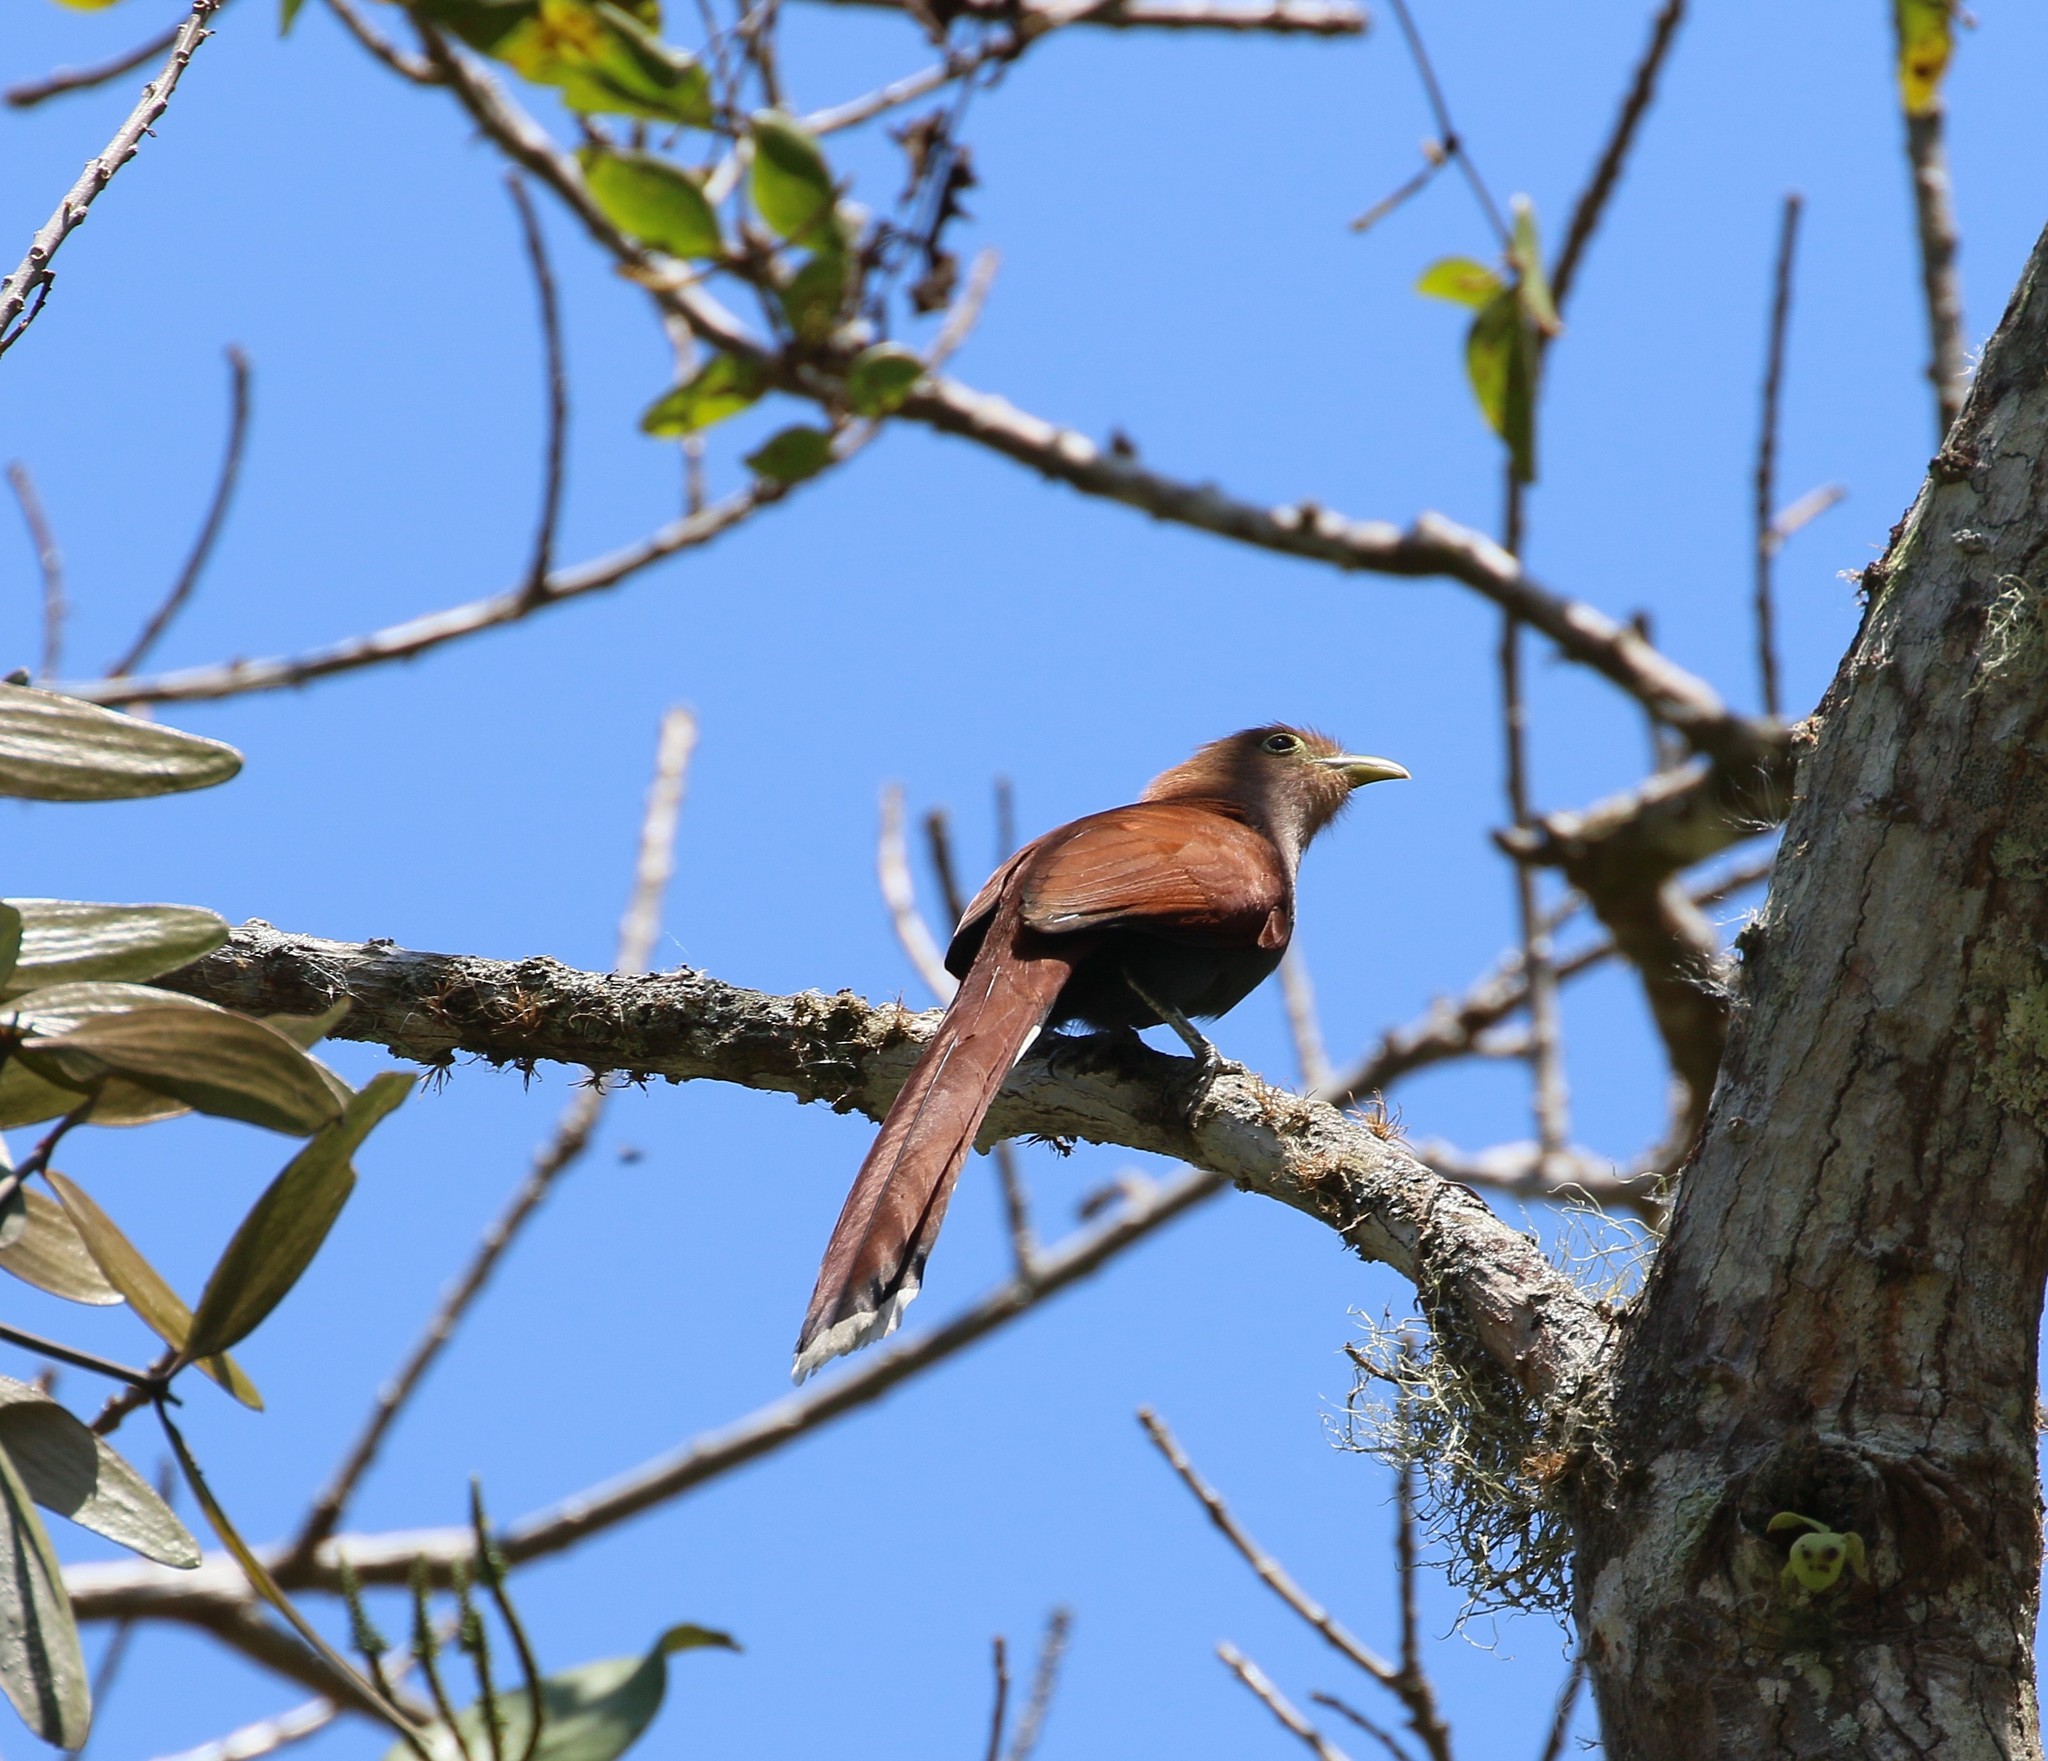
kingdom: Animalia
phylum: Chordata
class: Aves
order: Cuculiformes
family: Cuculidae
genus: Piaya
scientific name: Piaya cayana
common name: Squirrel cuckoo
